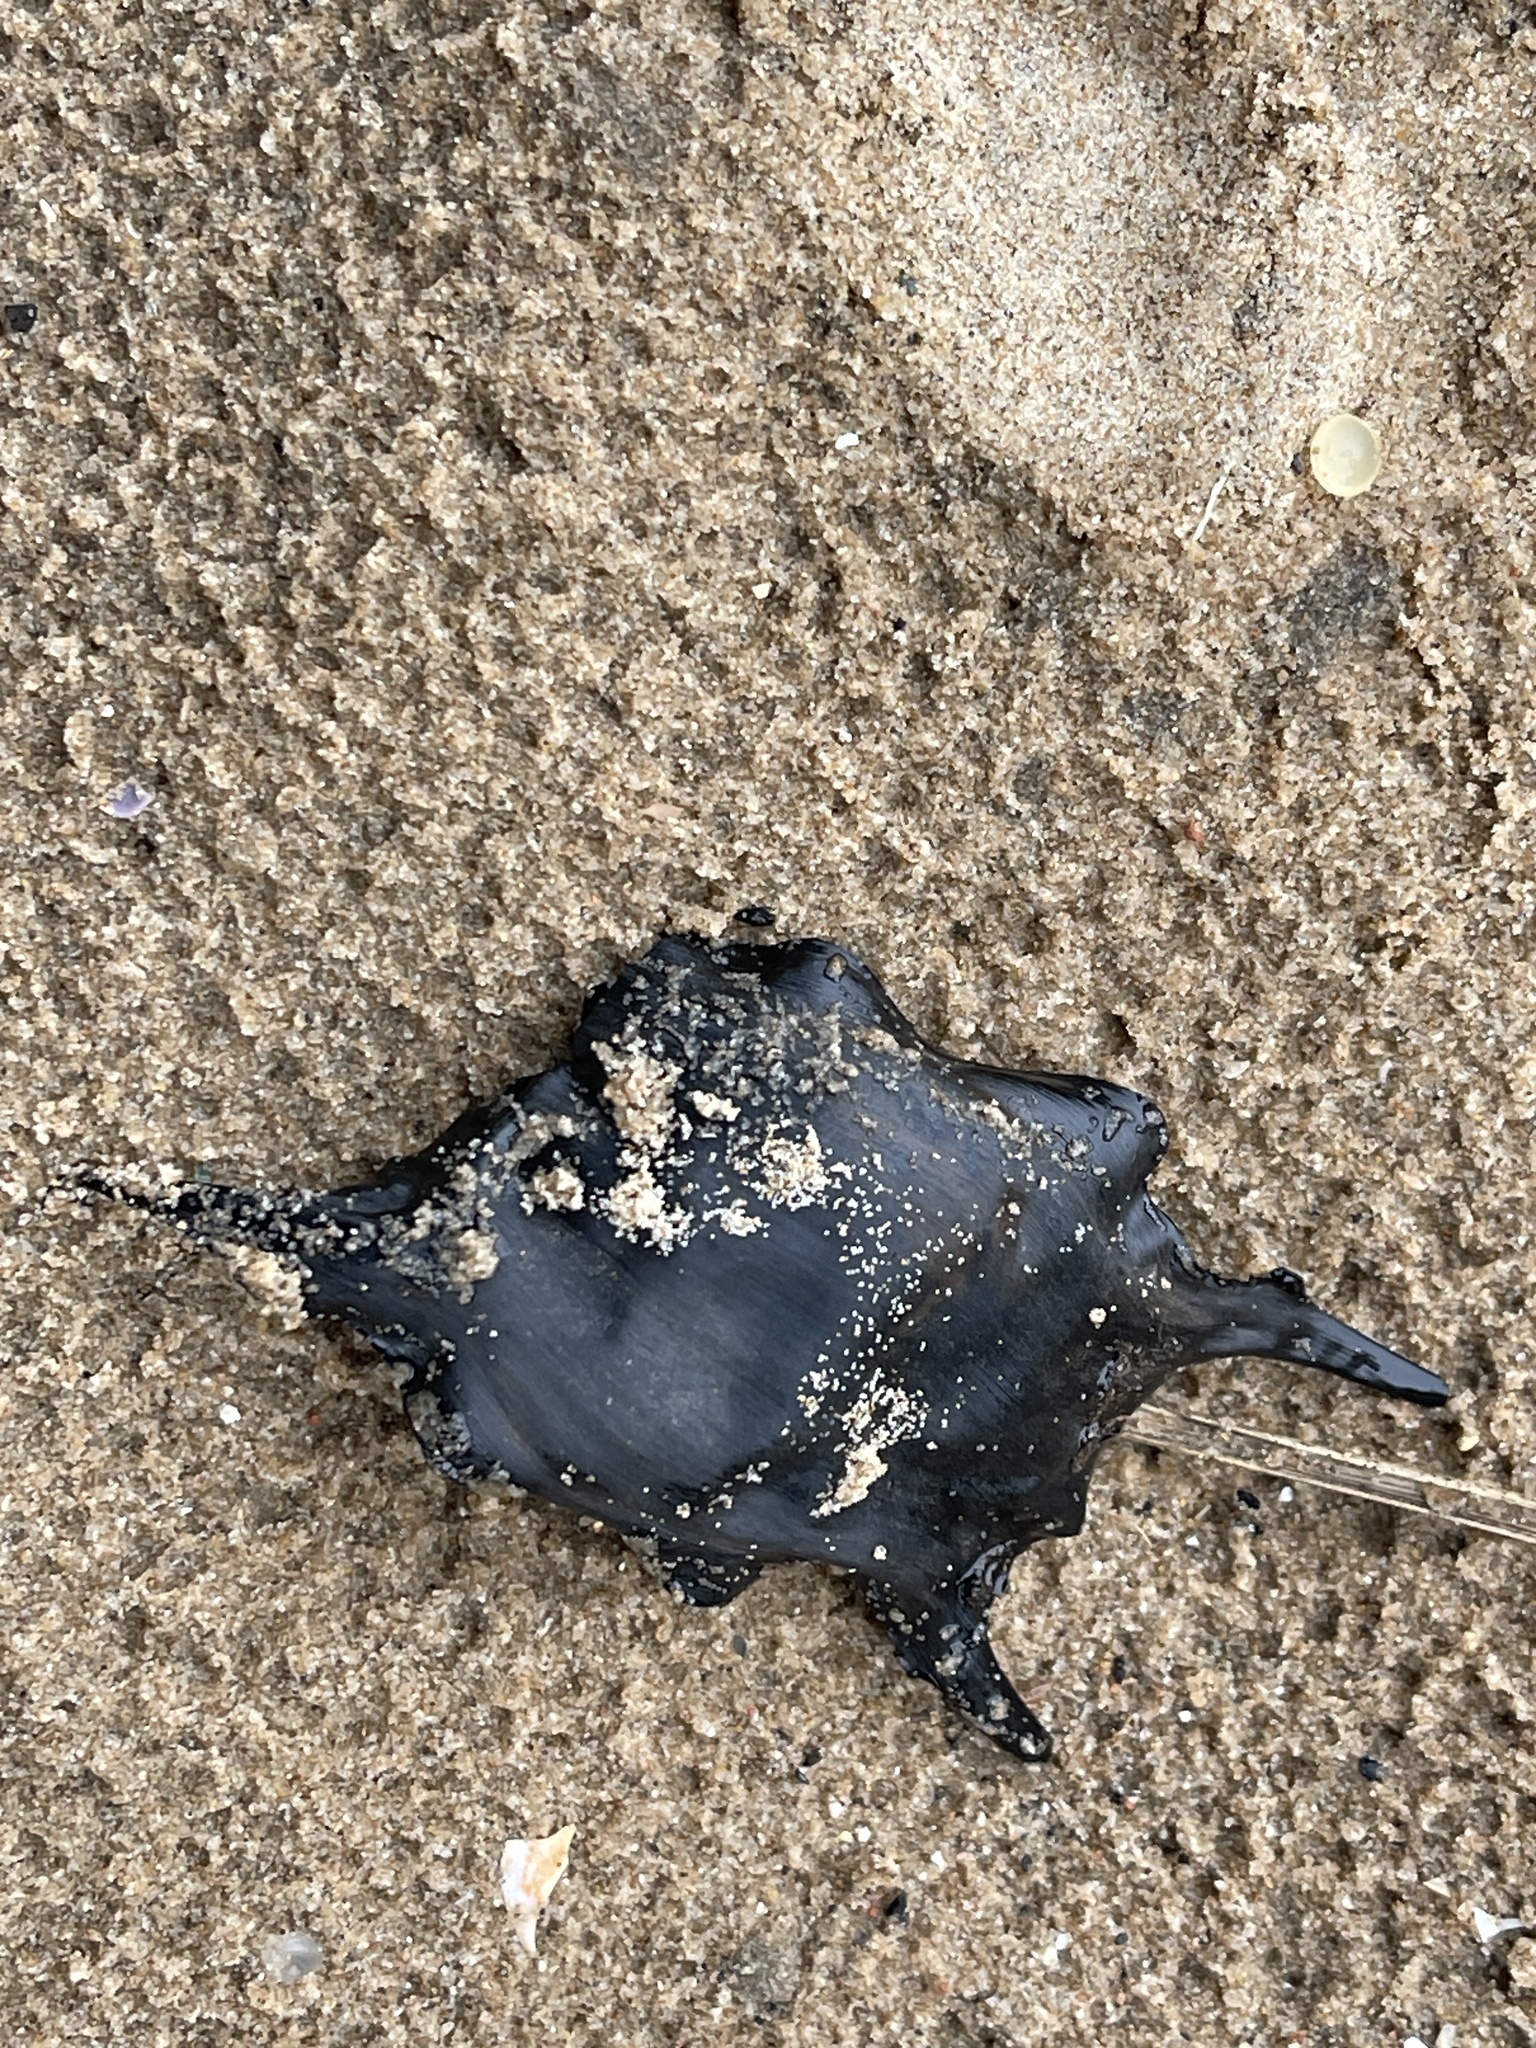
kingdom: Animalia
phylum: Chordata
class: Elasmobranchii
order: Rajiformes
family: Rajidae
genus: Raja
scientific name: Raja clavata
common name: Thornback ray
